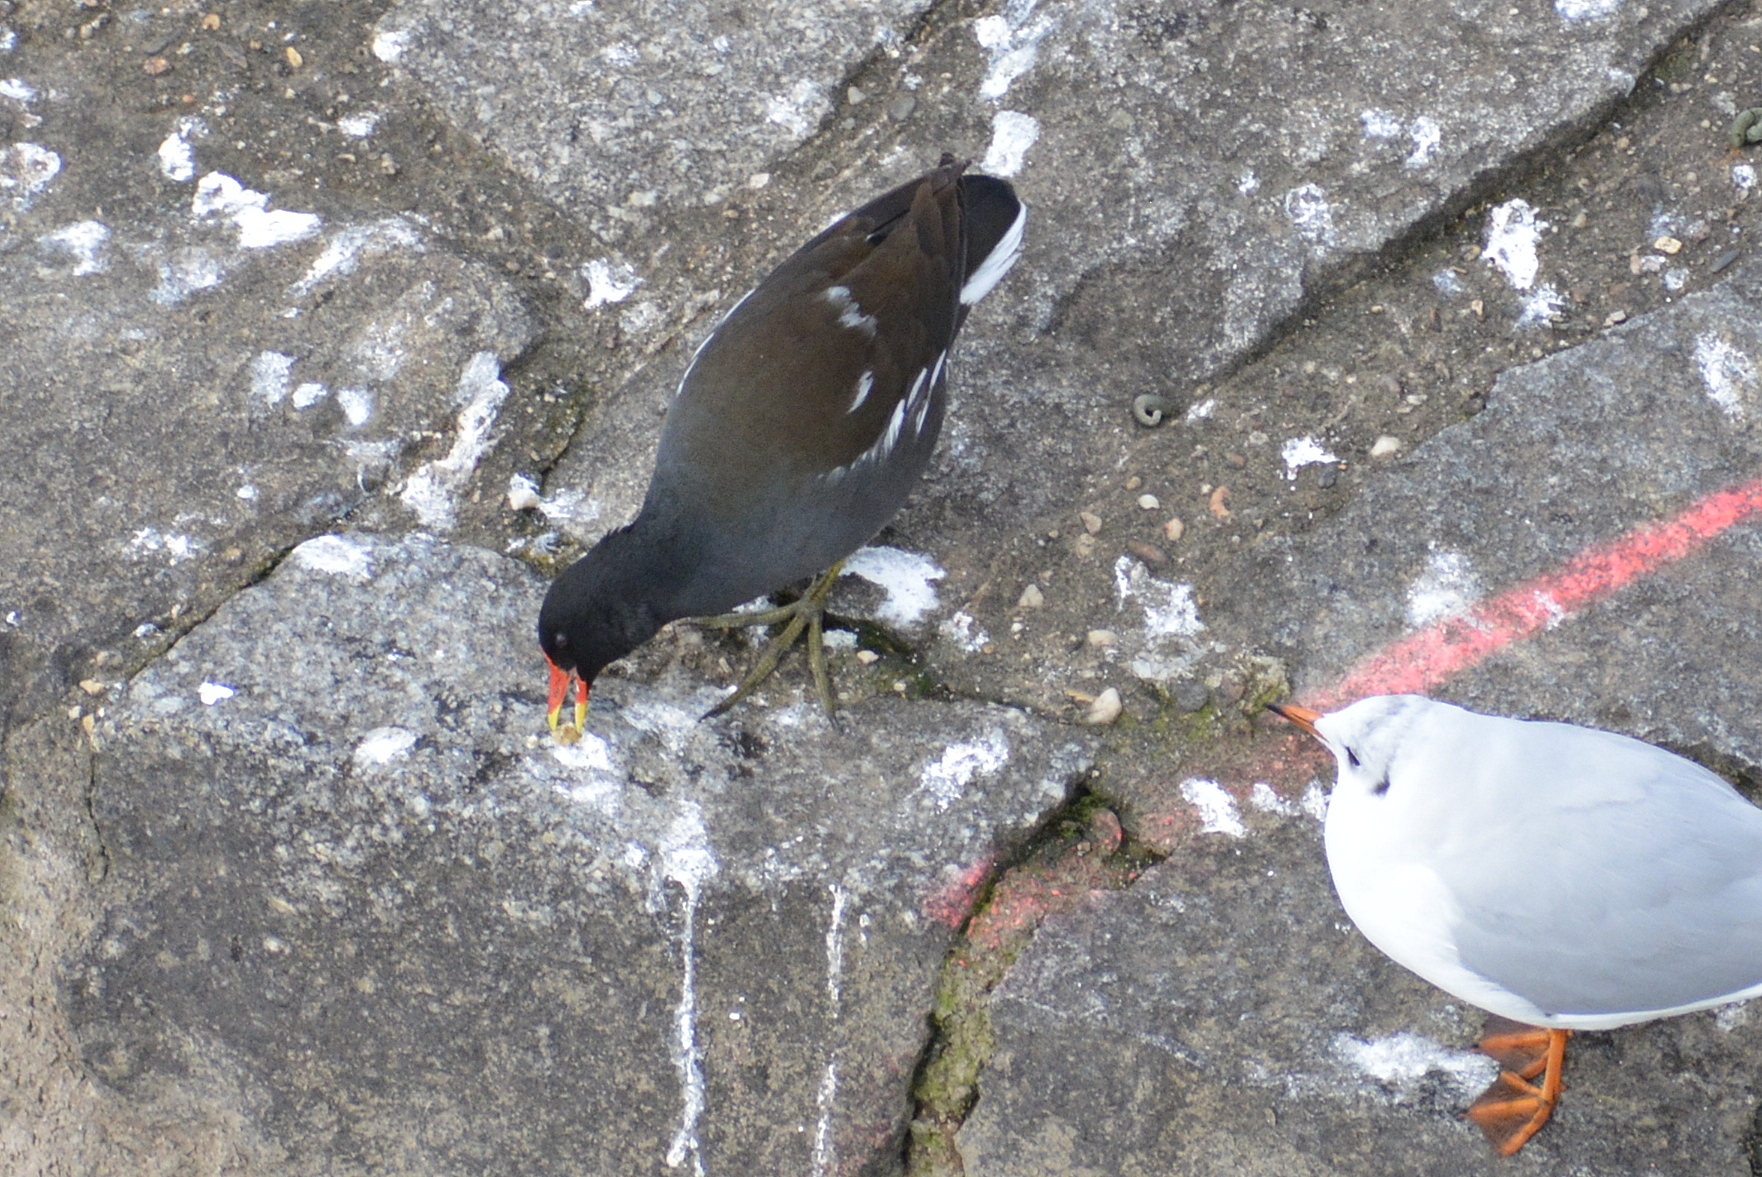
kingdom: Animalia
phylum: Chordata
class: Aves
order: Gruiformes
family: Rallidae
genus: Gallinula
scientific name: Gallinula chloropus
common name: Common moorhen
